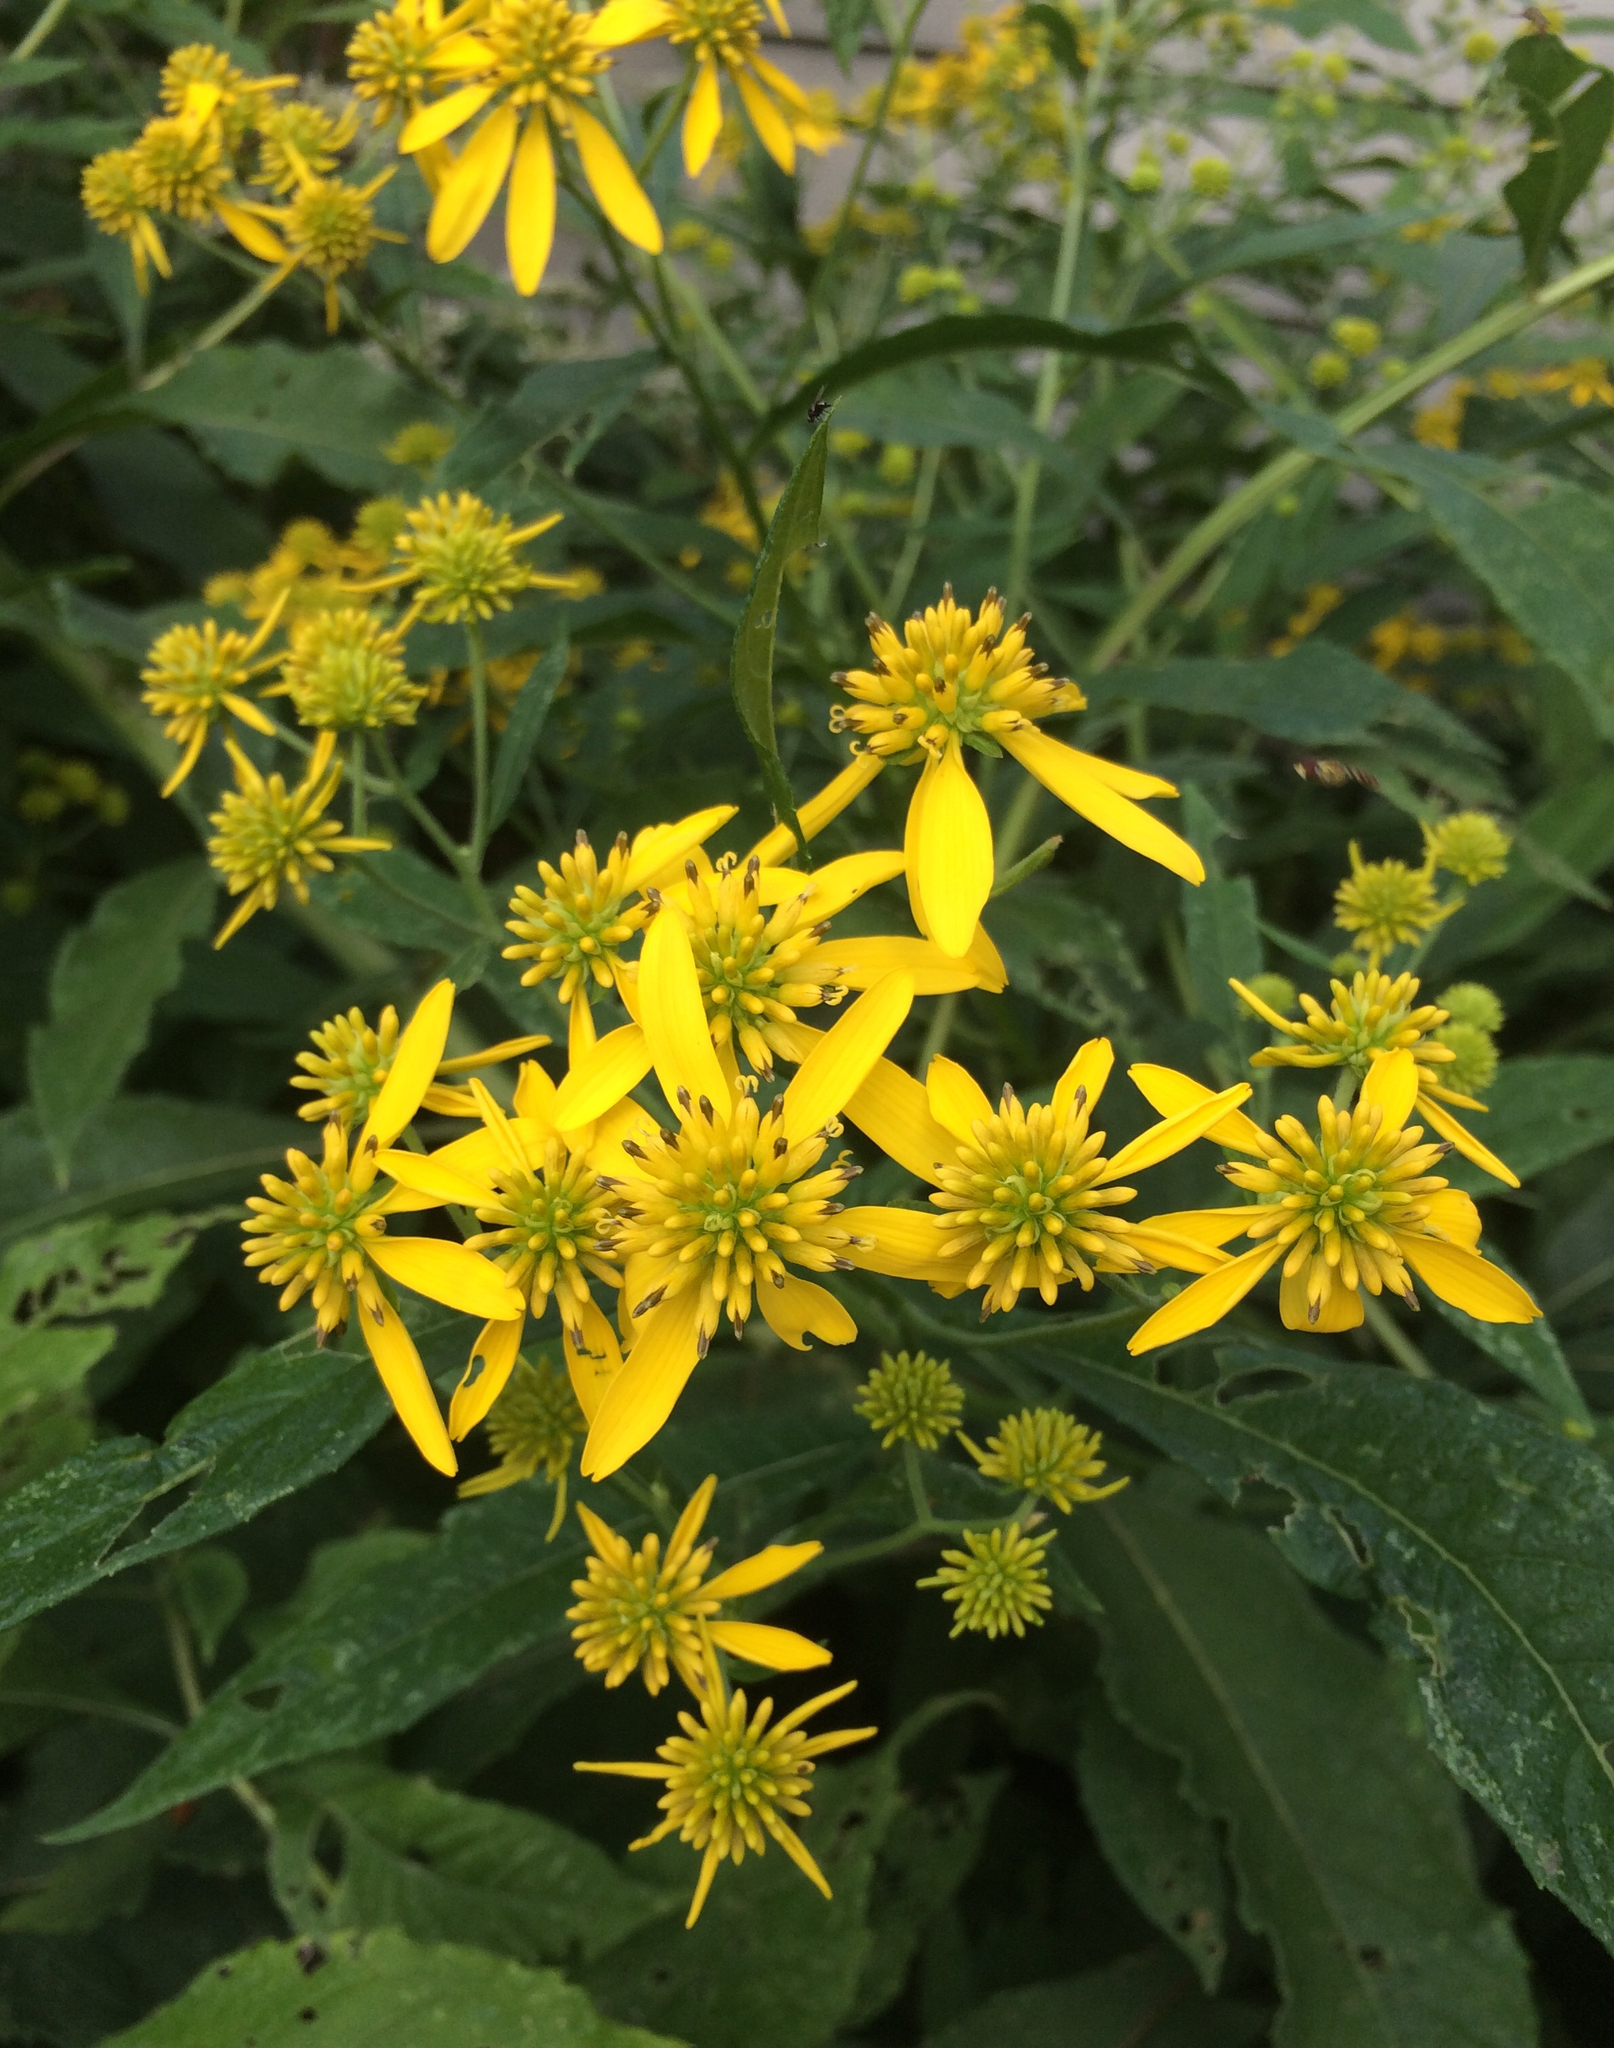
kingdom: Plantae
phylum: Tracheophyta
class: Magnoliopsida
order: Asterales
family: Asteraceae
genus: Verbesina
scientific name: Verbesina alternifolia
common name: Wingstem
